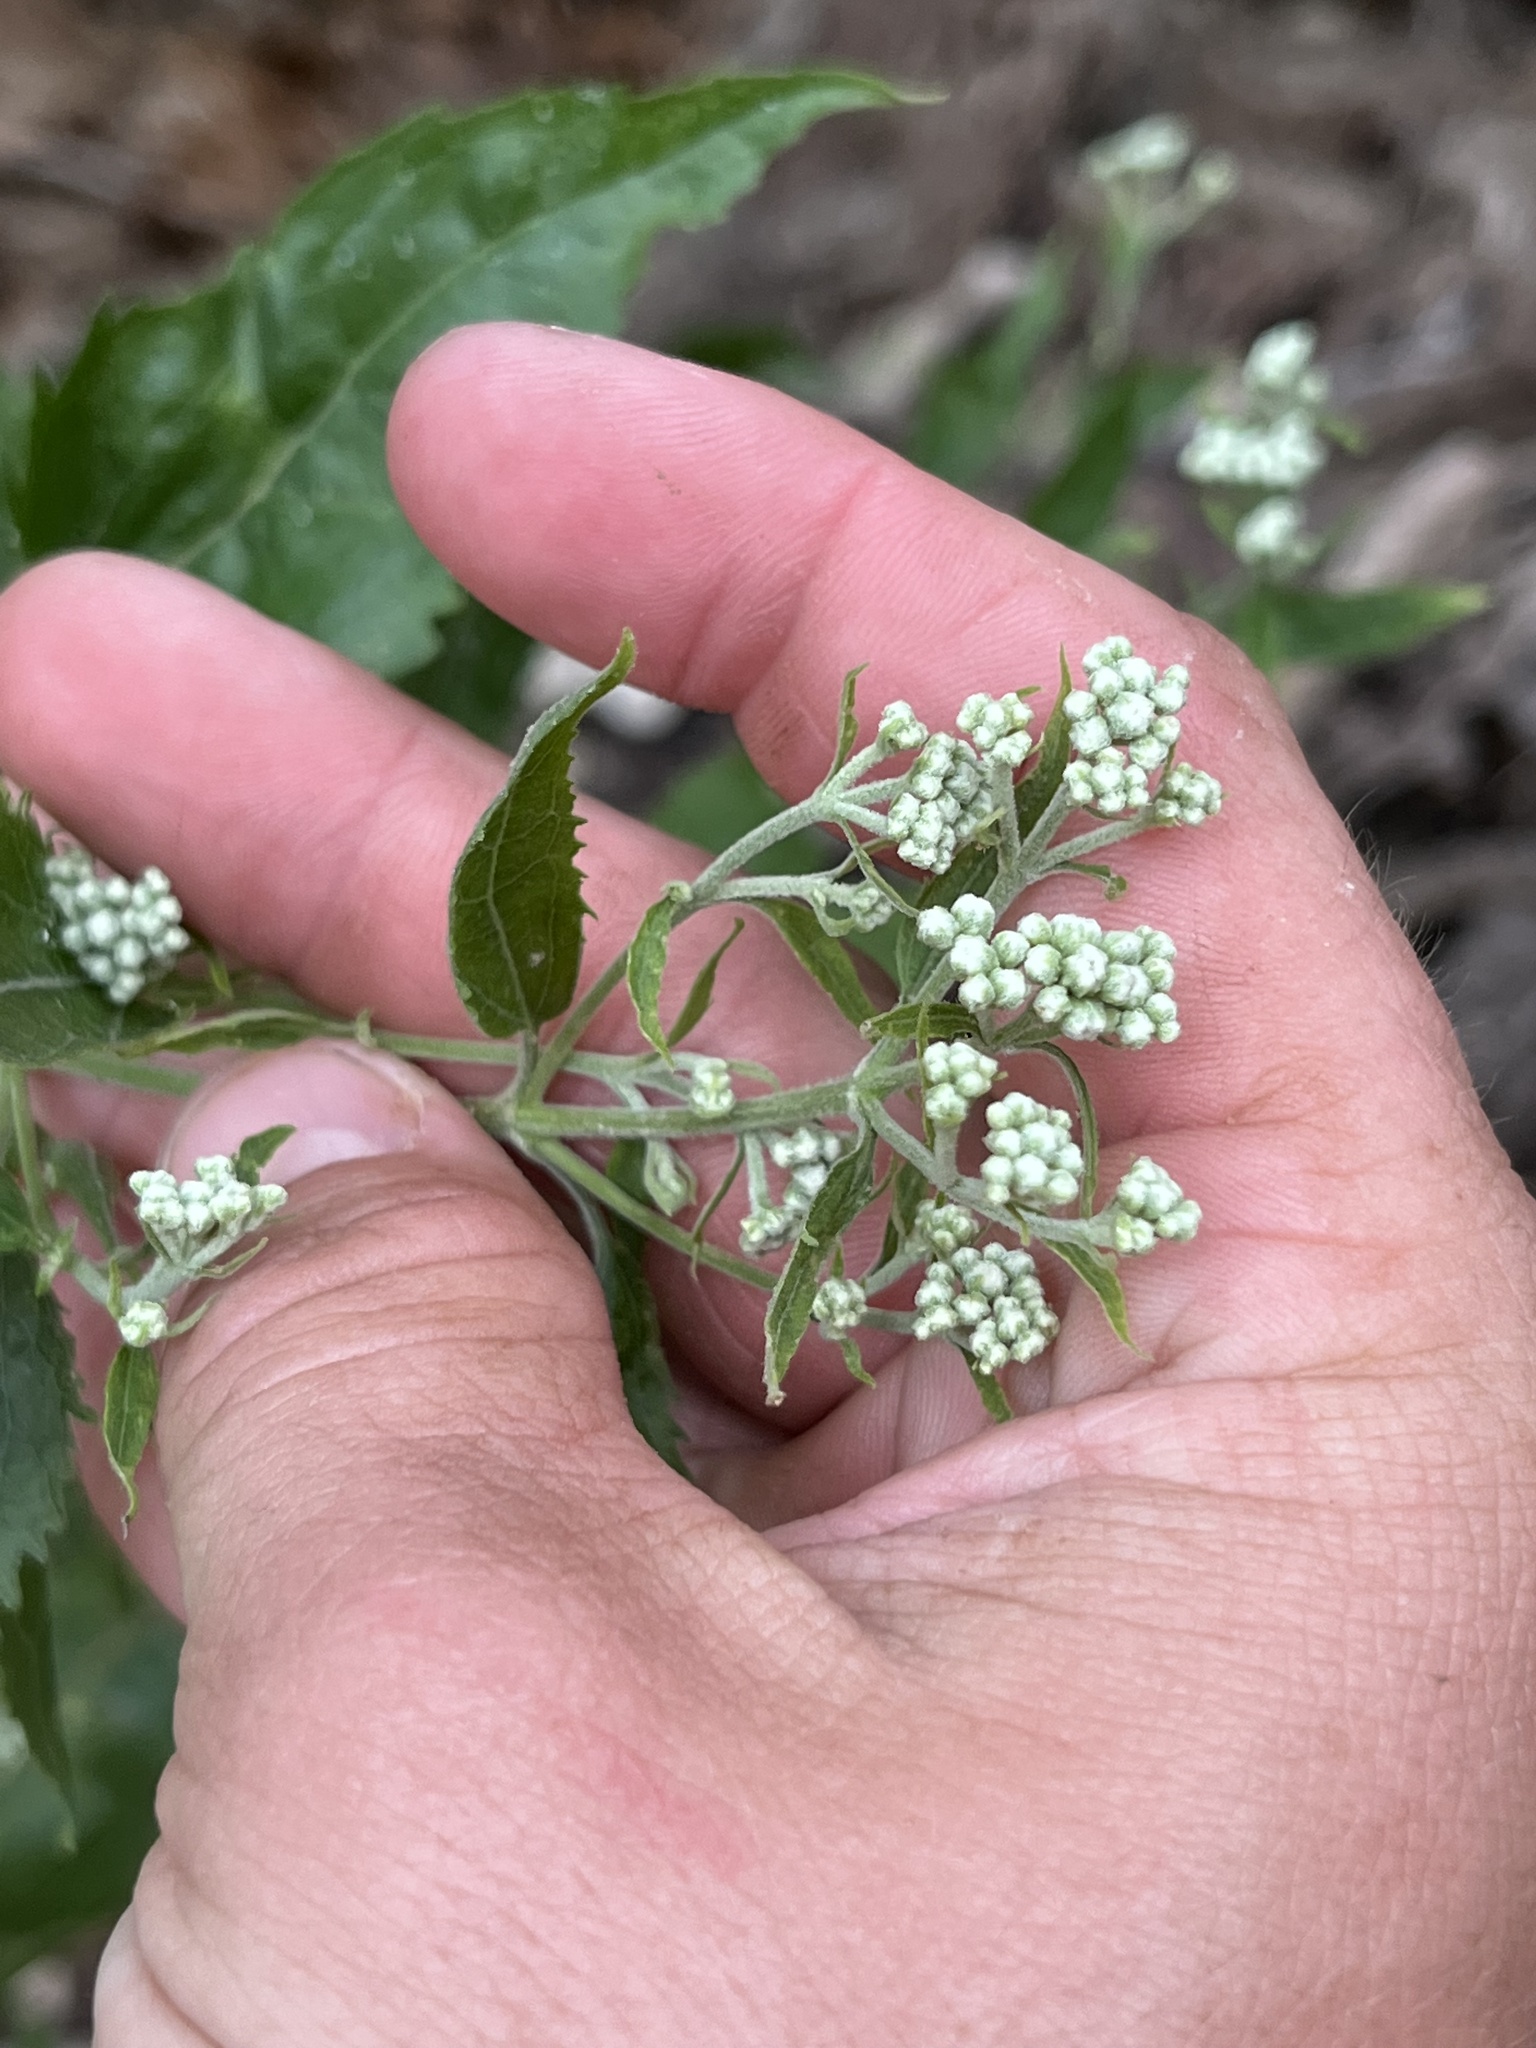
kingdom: Plantae
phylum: Tracheophyta
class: Magnoliopsida
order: Asterales
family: Asteraceae
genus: Eupatorium
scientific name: Eupatorium serotinum
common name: Late boneset
